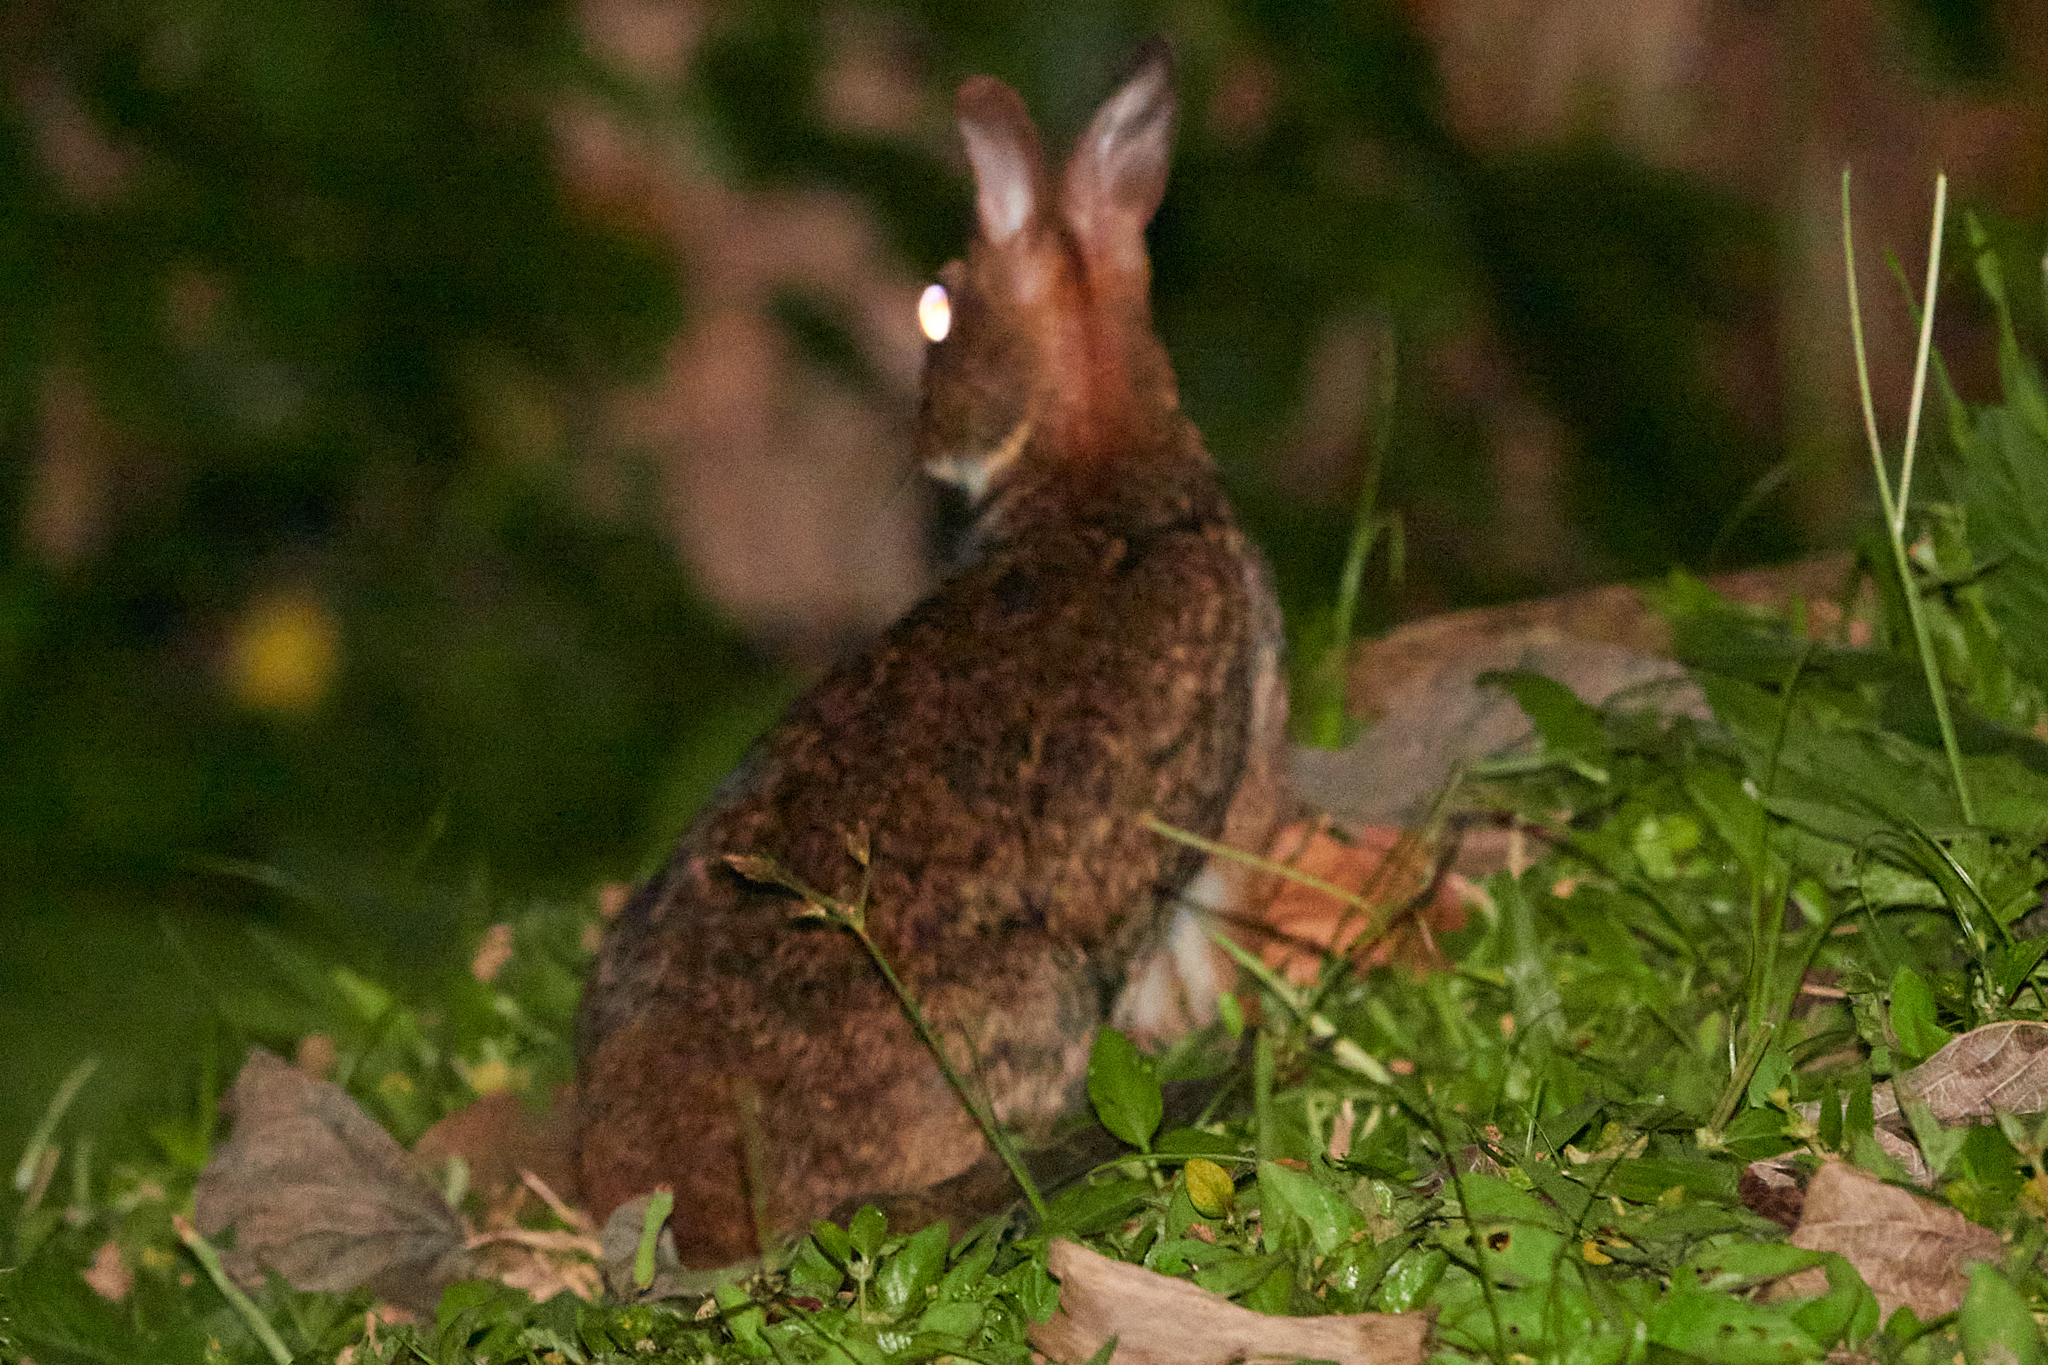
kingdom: Animalia
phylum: Chordata
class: Mammalia
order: Lagomorpha
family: Leporidae
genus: Sylvilagus
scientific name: Sylvilagus gabbi
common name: Gabb's cottontail
